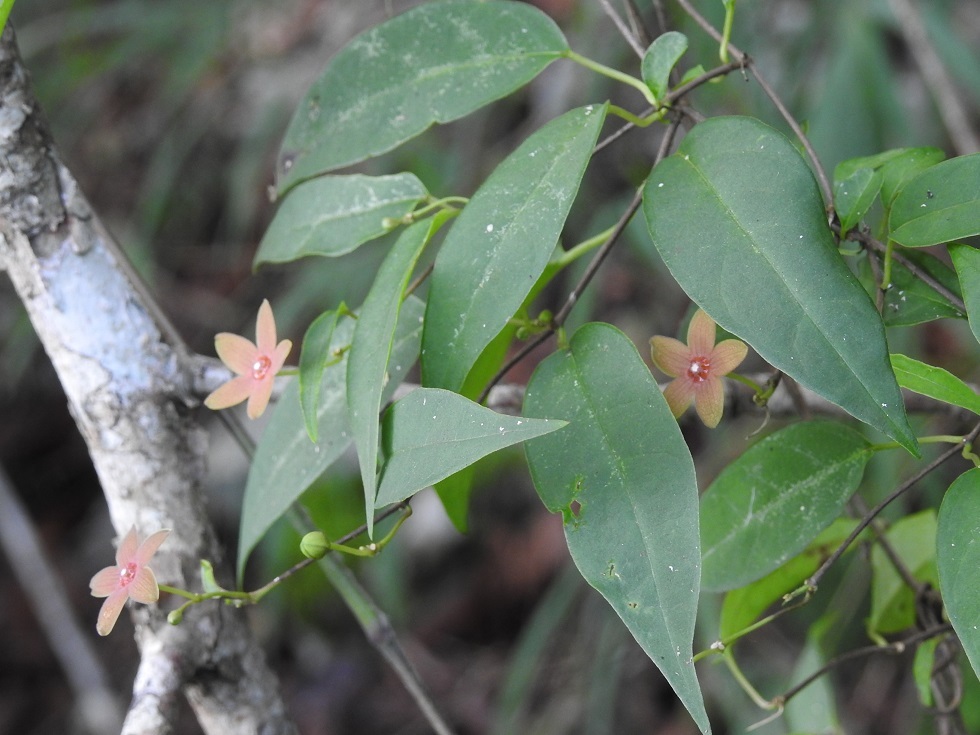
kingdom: Plantae
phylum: Tracheophyta
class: Magnoliopsida
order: Gentianales
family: Apocynaceae
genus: Ruehssia
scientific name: Ruehssia sumiderensis
